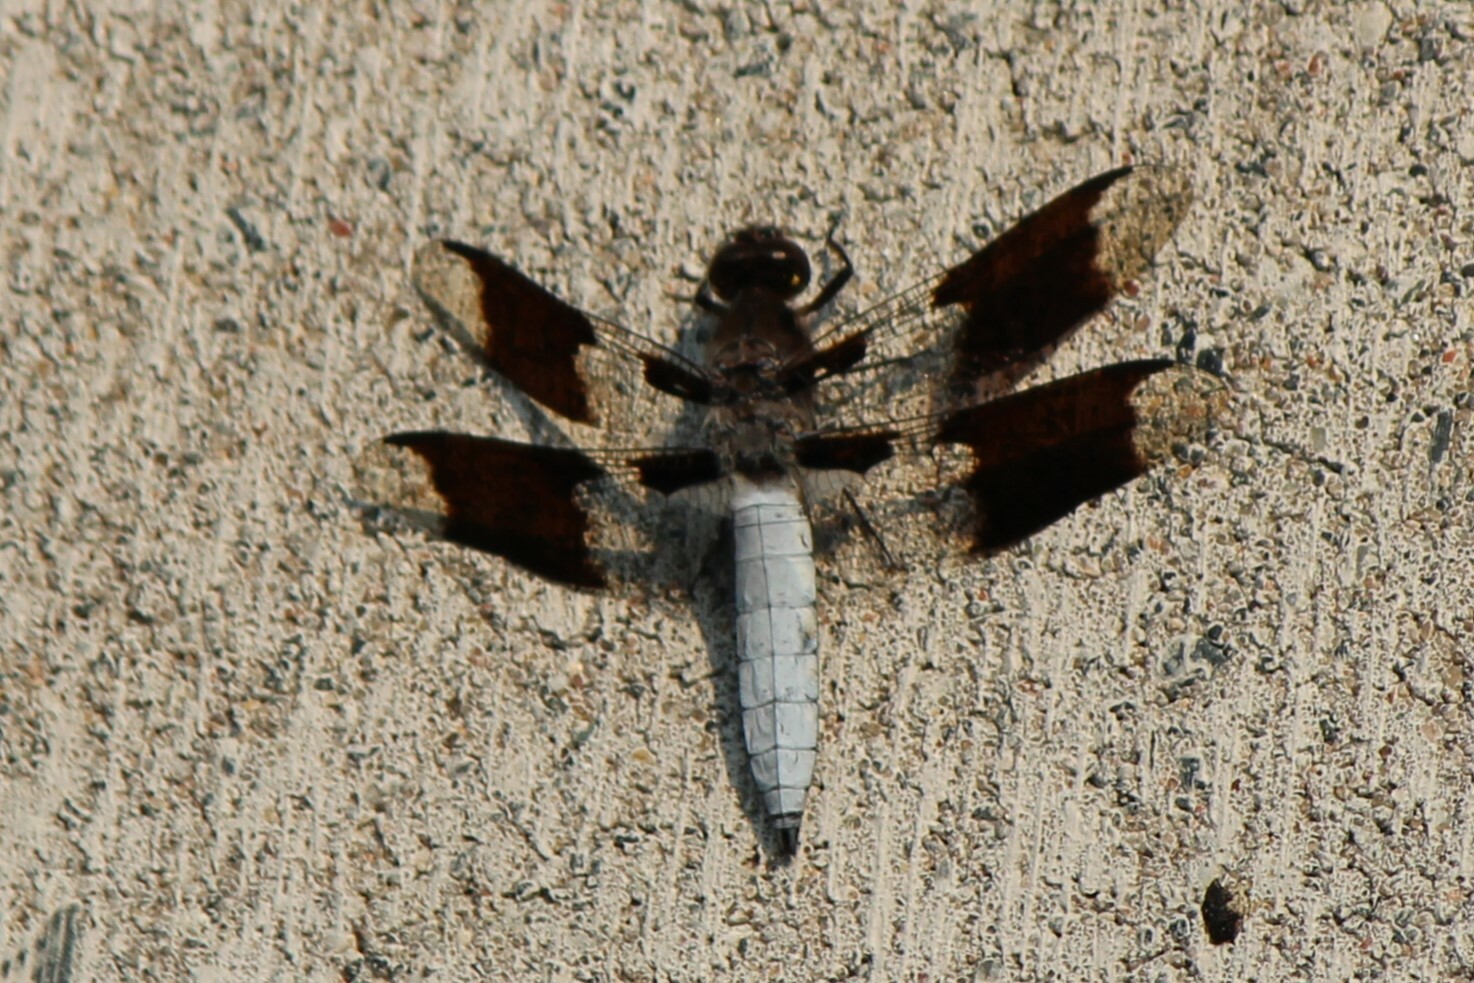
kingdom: Animalia
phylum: Arthropoda
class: Insecta
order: Odonata
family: Libellulidae
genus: Plathemis
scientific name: Plathemis lydia
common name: Common whitetail
